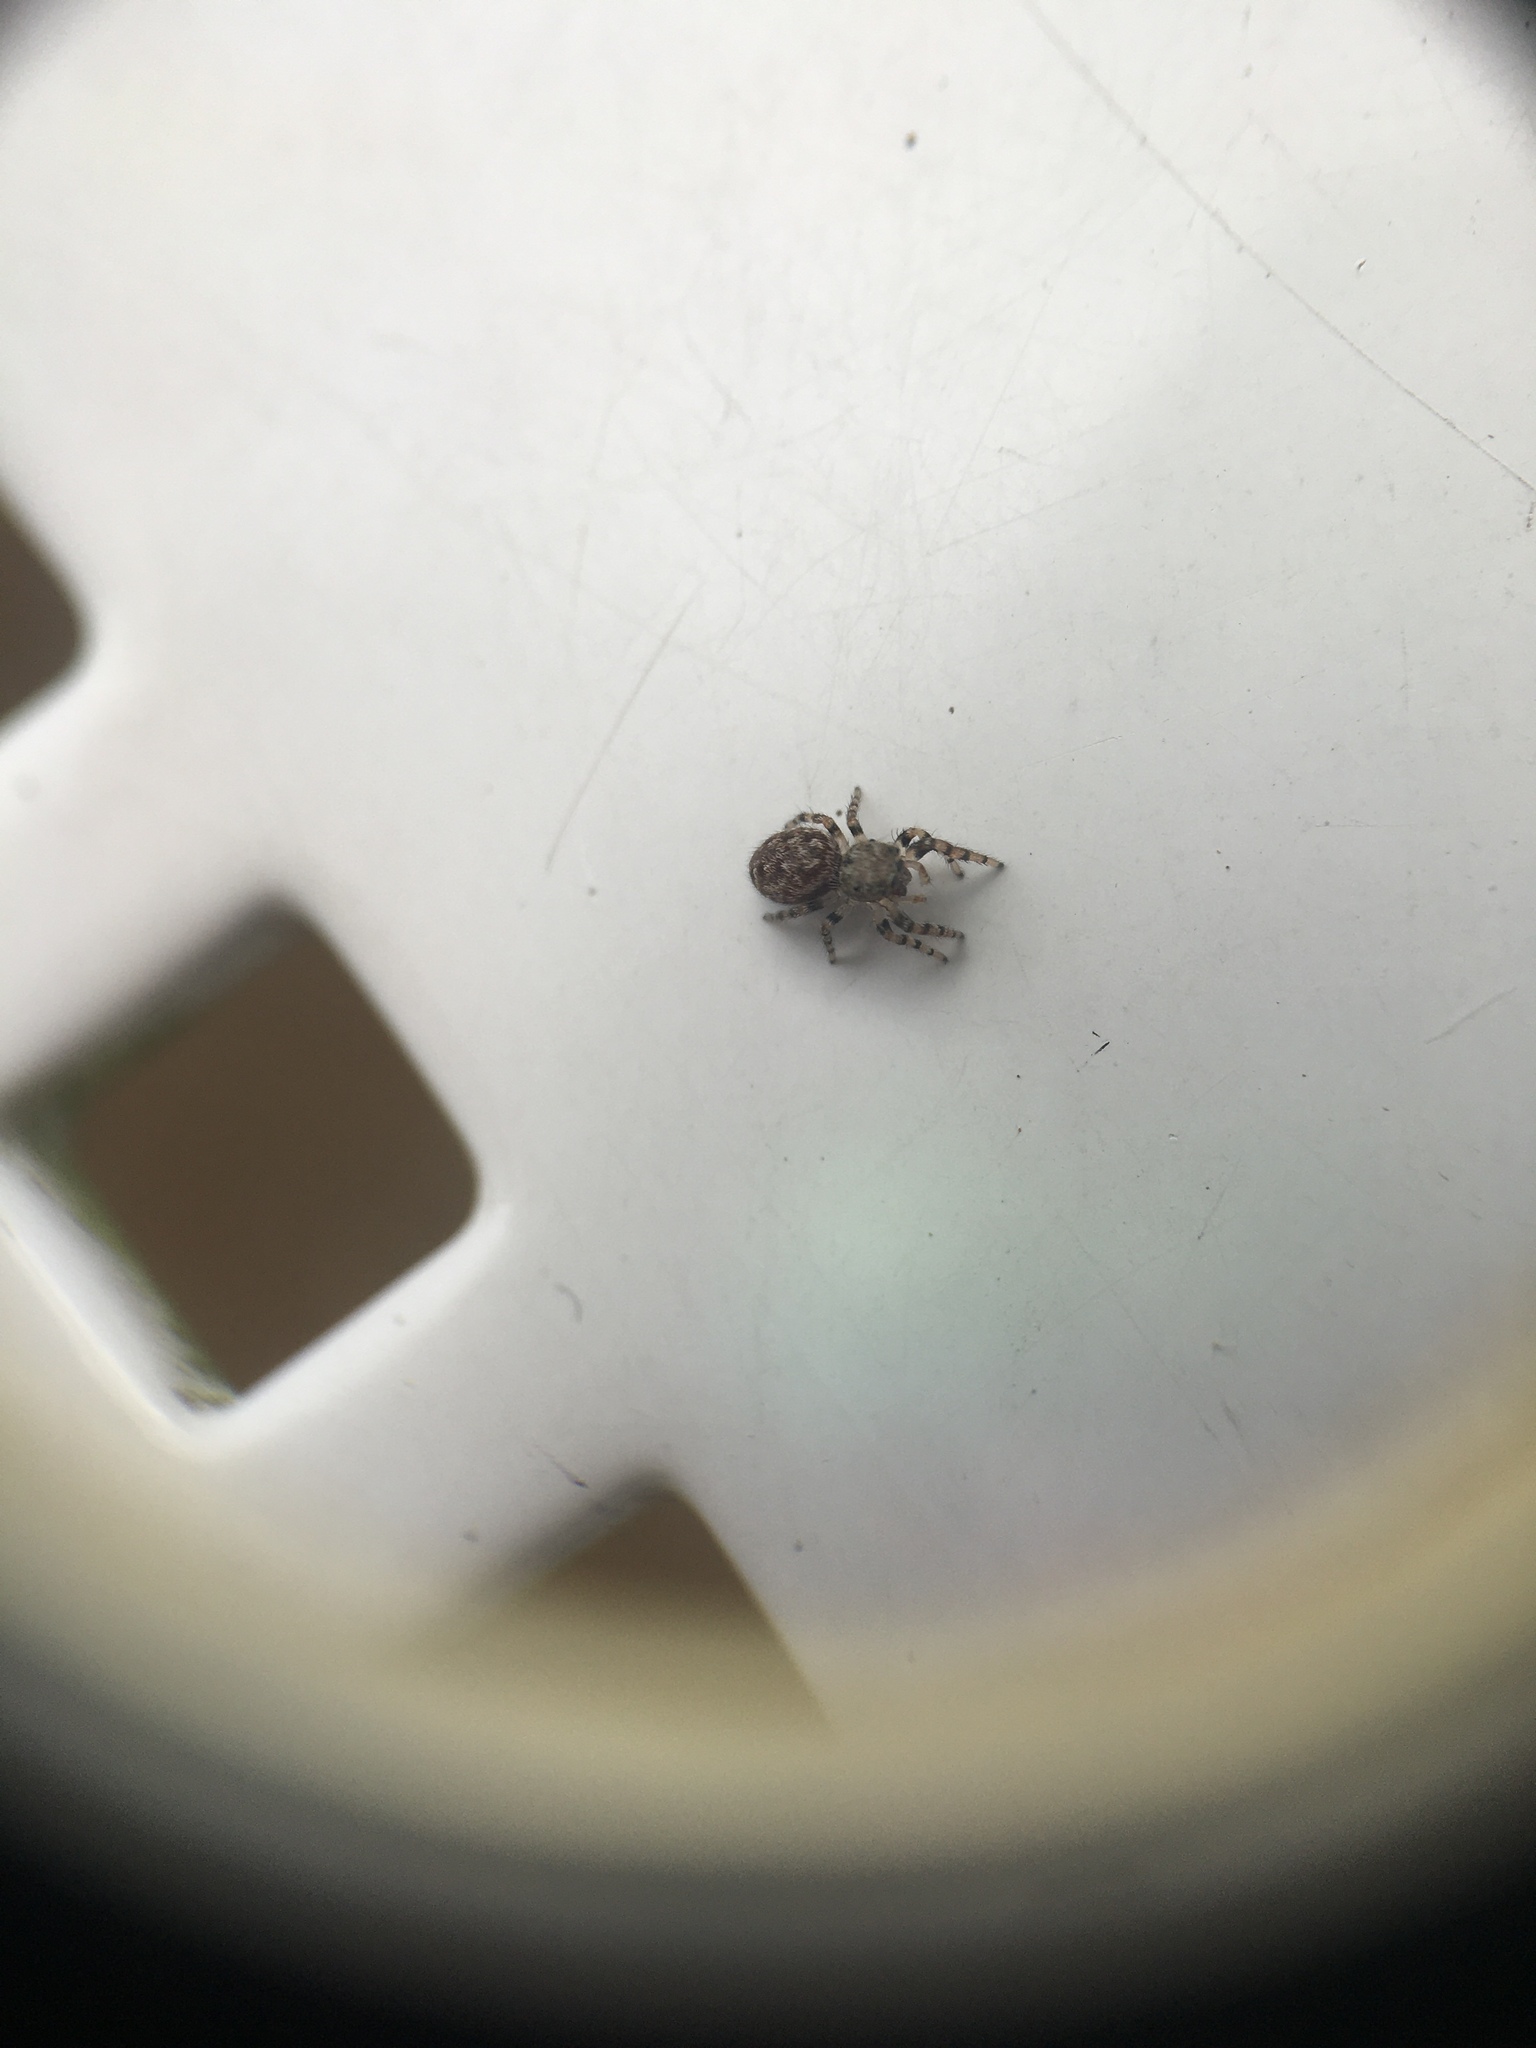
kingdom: Animalia
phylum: Arthropoda
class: Arachnida
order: Araneae
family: Salticidae
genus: Pelegrina
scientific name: Pelegrina galathea
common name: Jumping spiders
